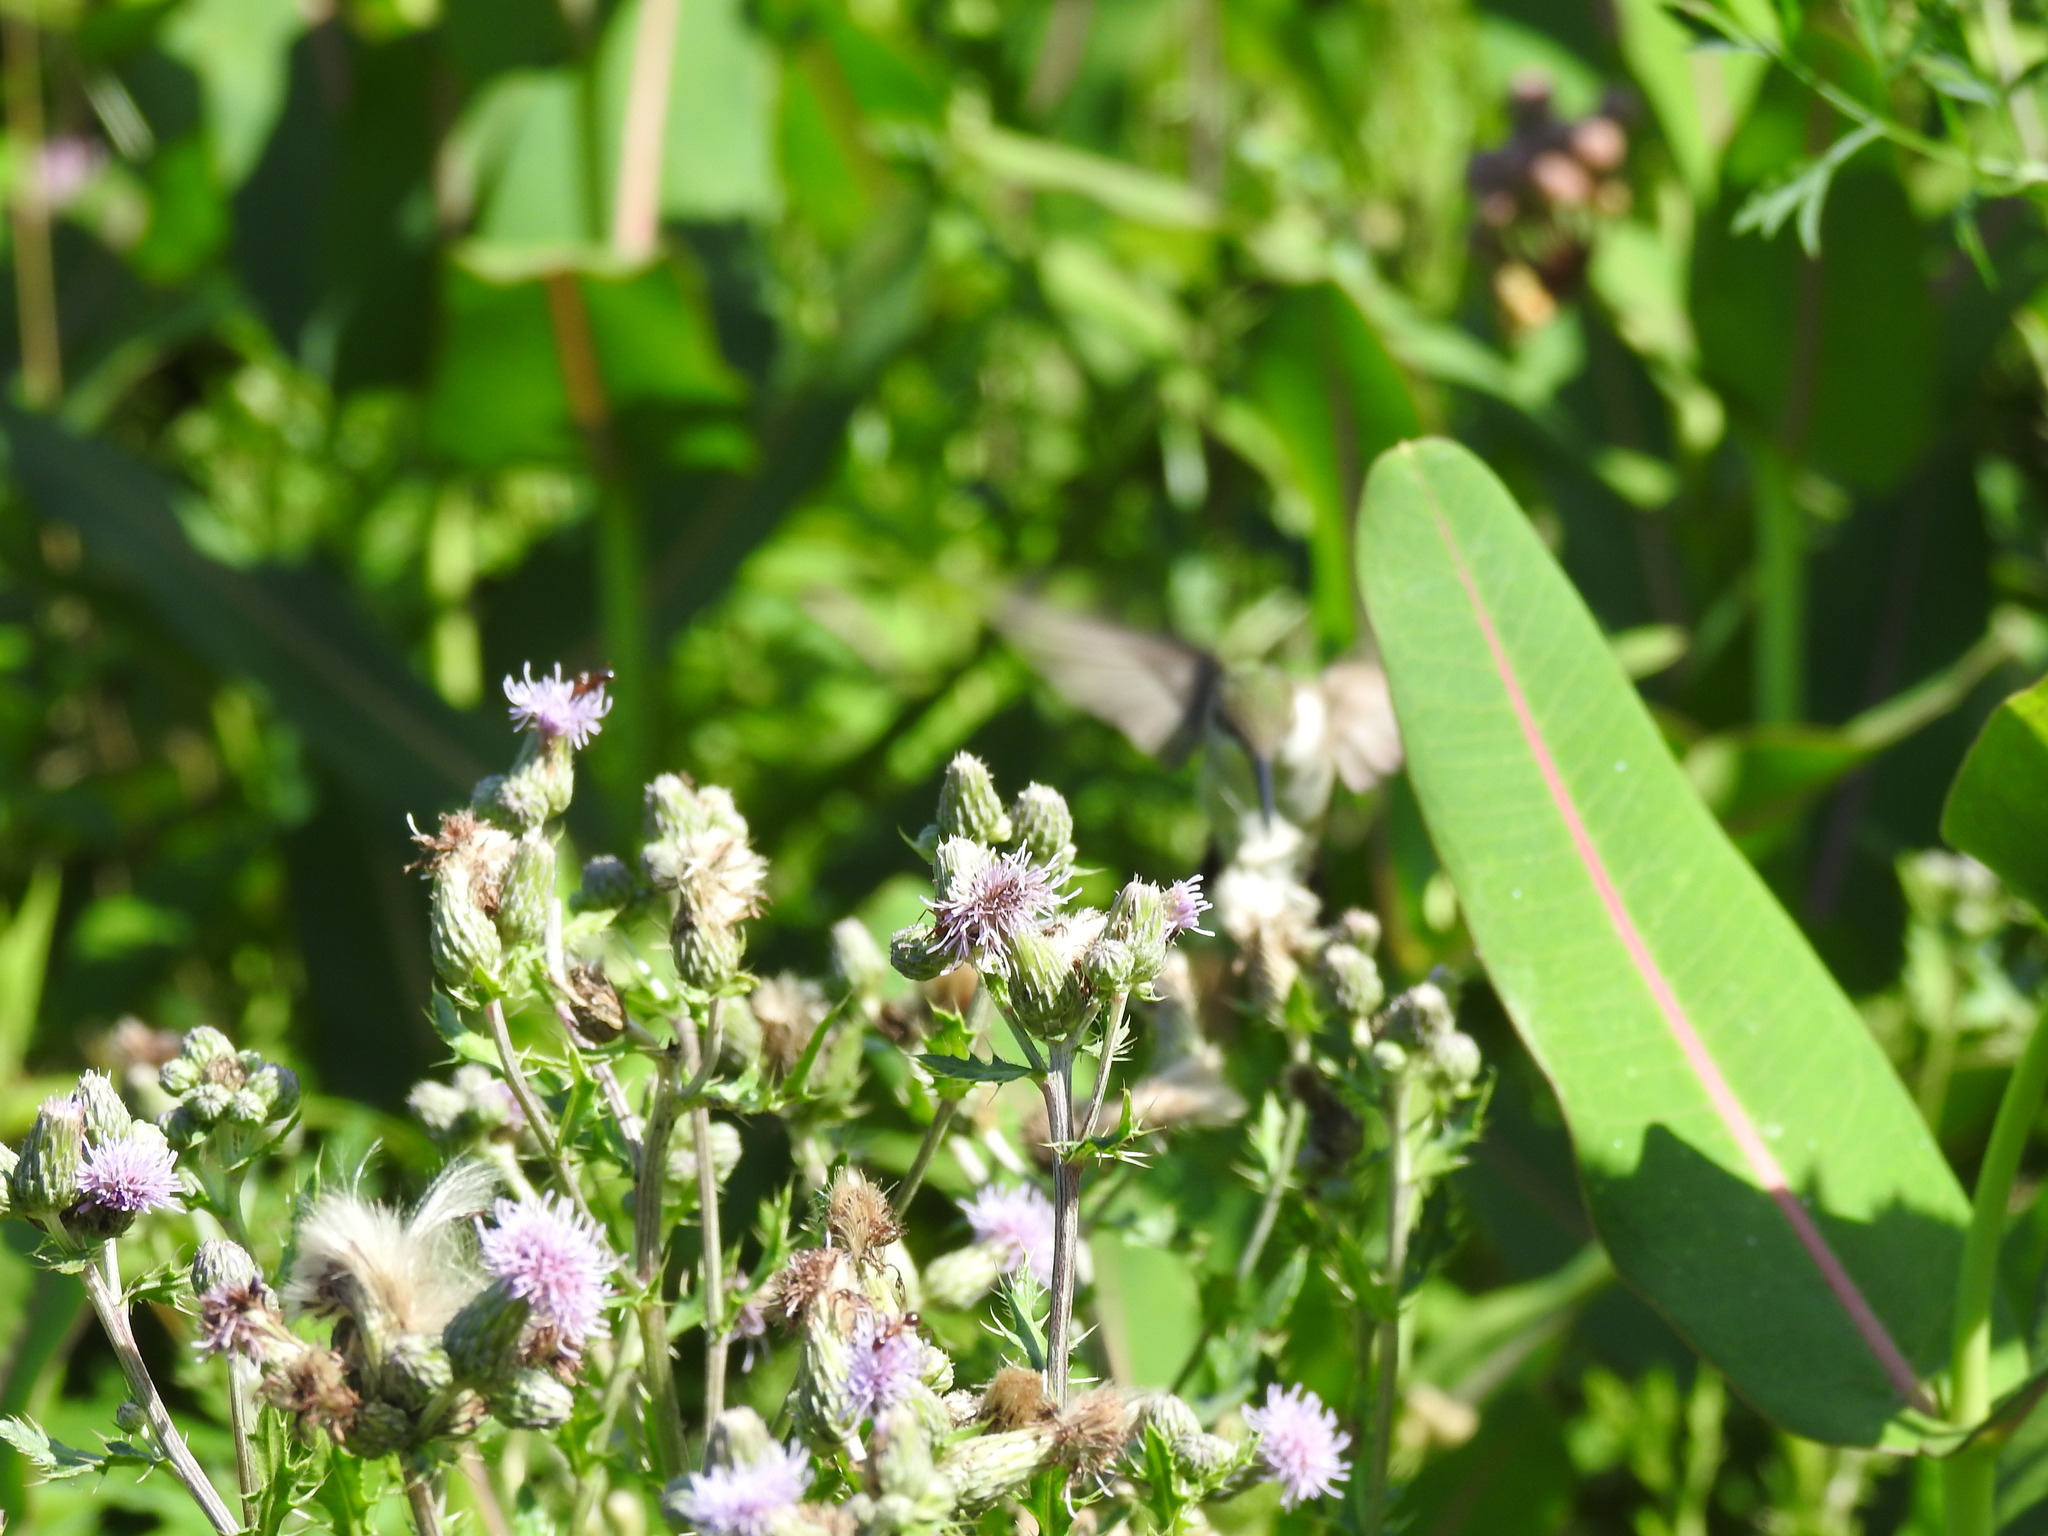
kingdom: Animalia
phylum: Chordata
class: Aves
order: Apodiformes
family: Trochilidae
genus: Archilochus
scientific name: Archilochus colubris
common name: Ruby-throated hummingbird
